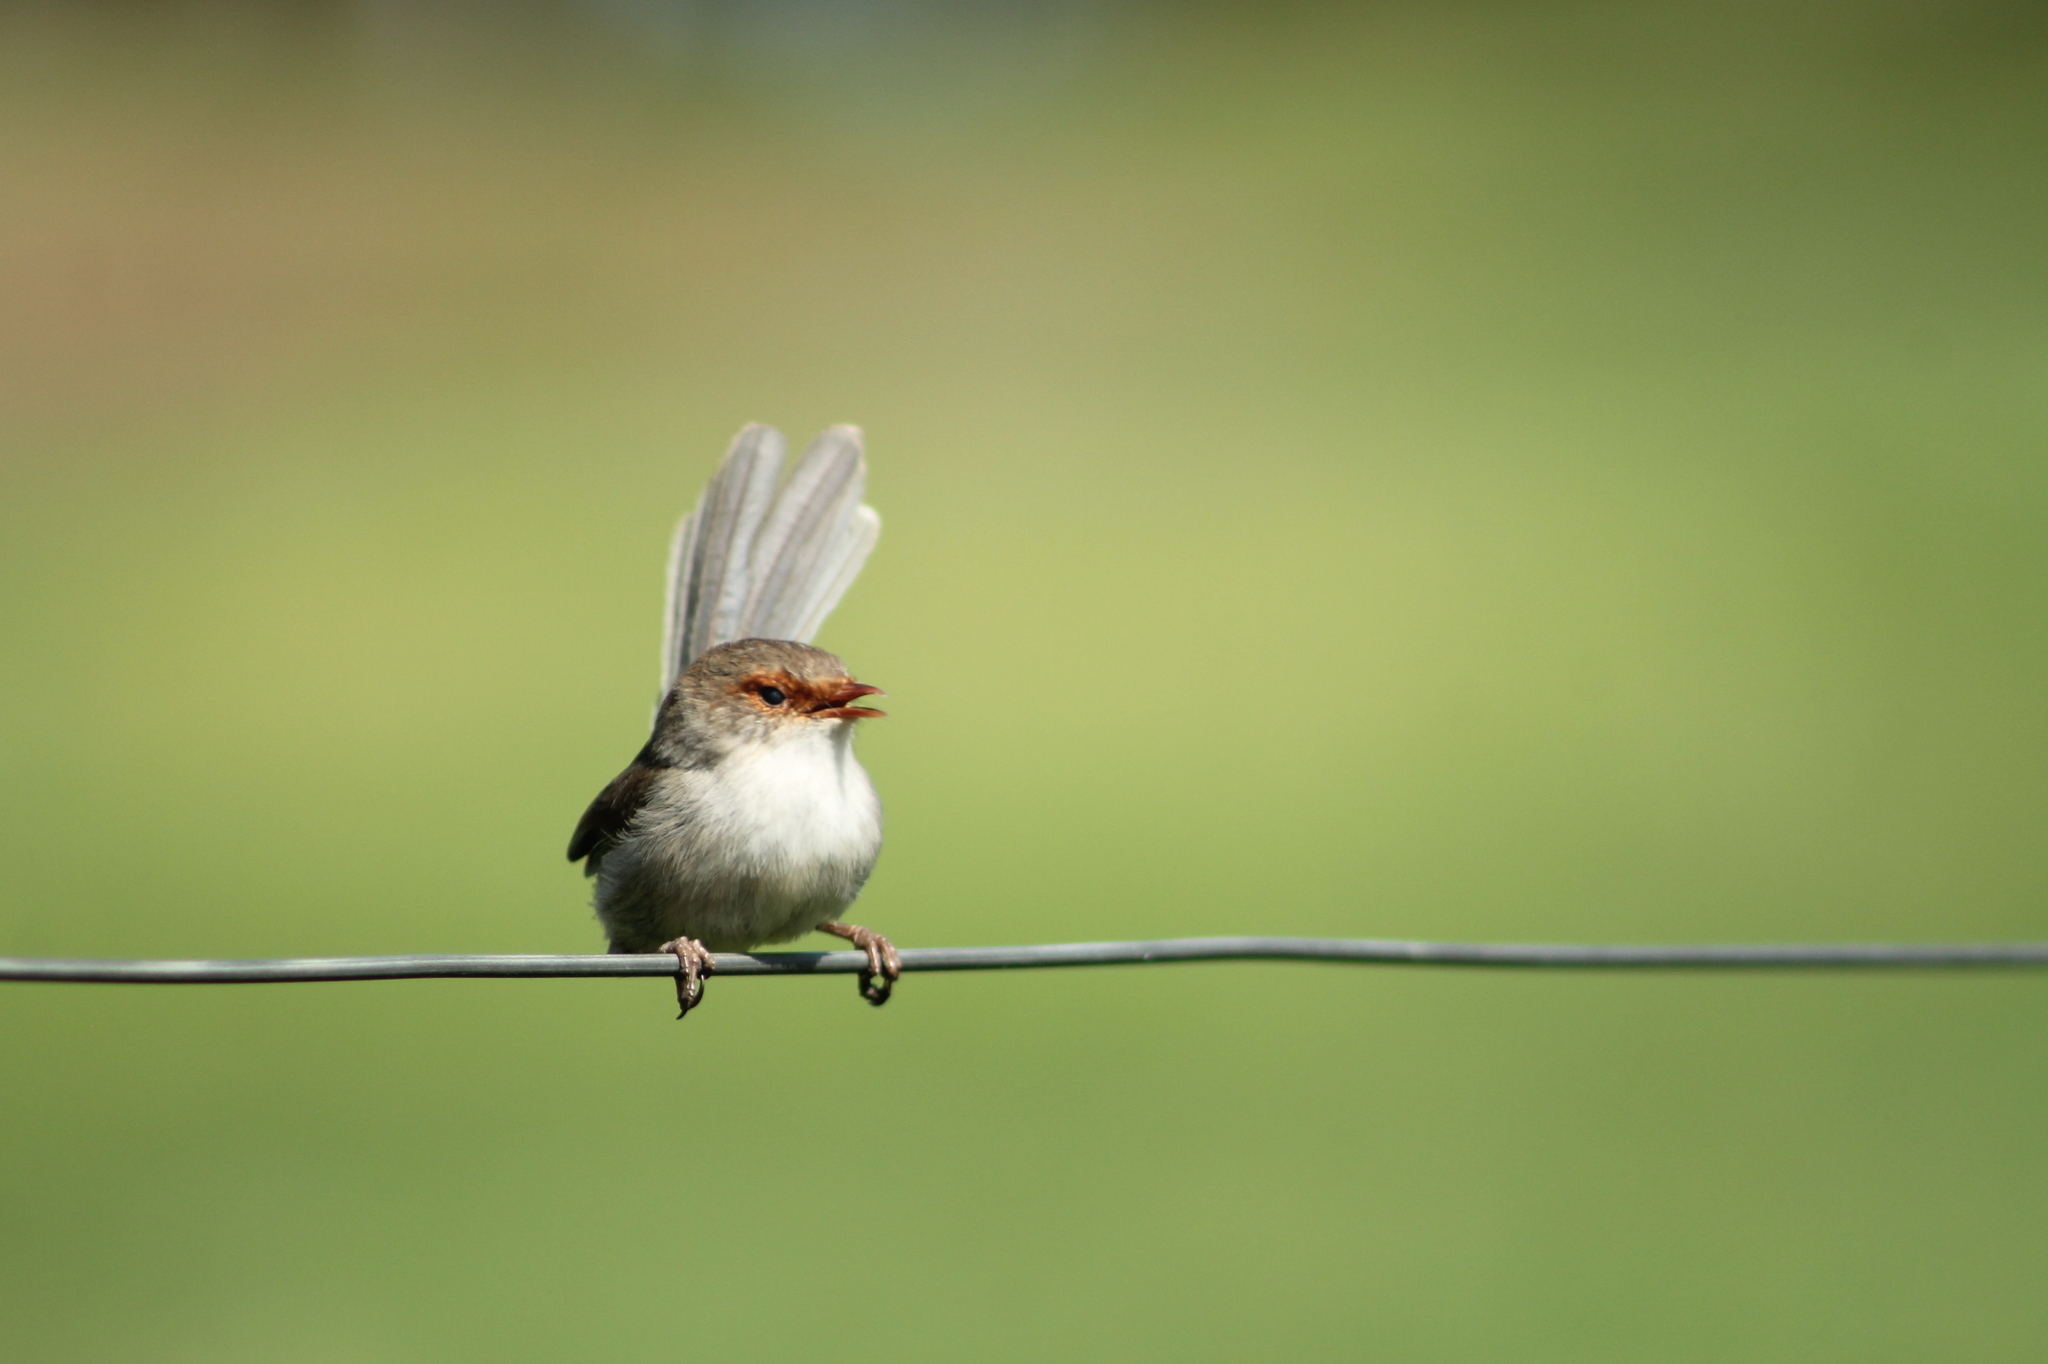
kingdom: Animalia
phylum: Chordata
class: Aves
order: Passeriformes
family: Maluridae
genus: Malurus
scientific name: Malurus cyaneus
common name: Superb fairywren
